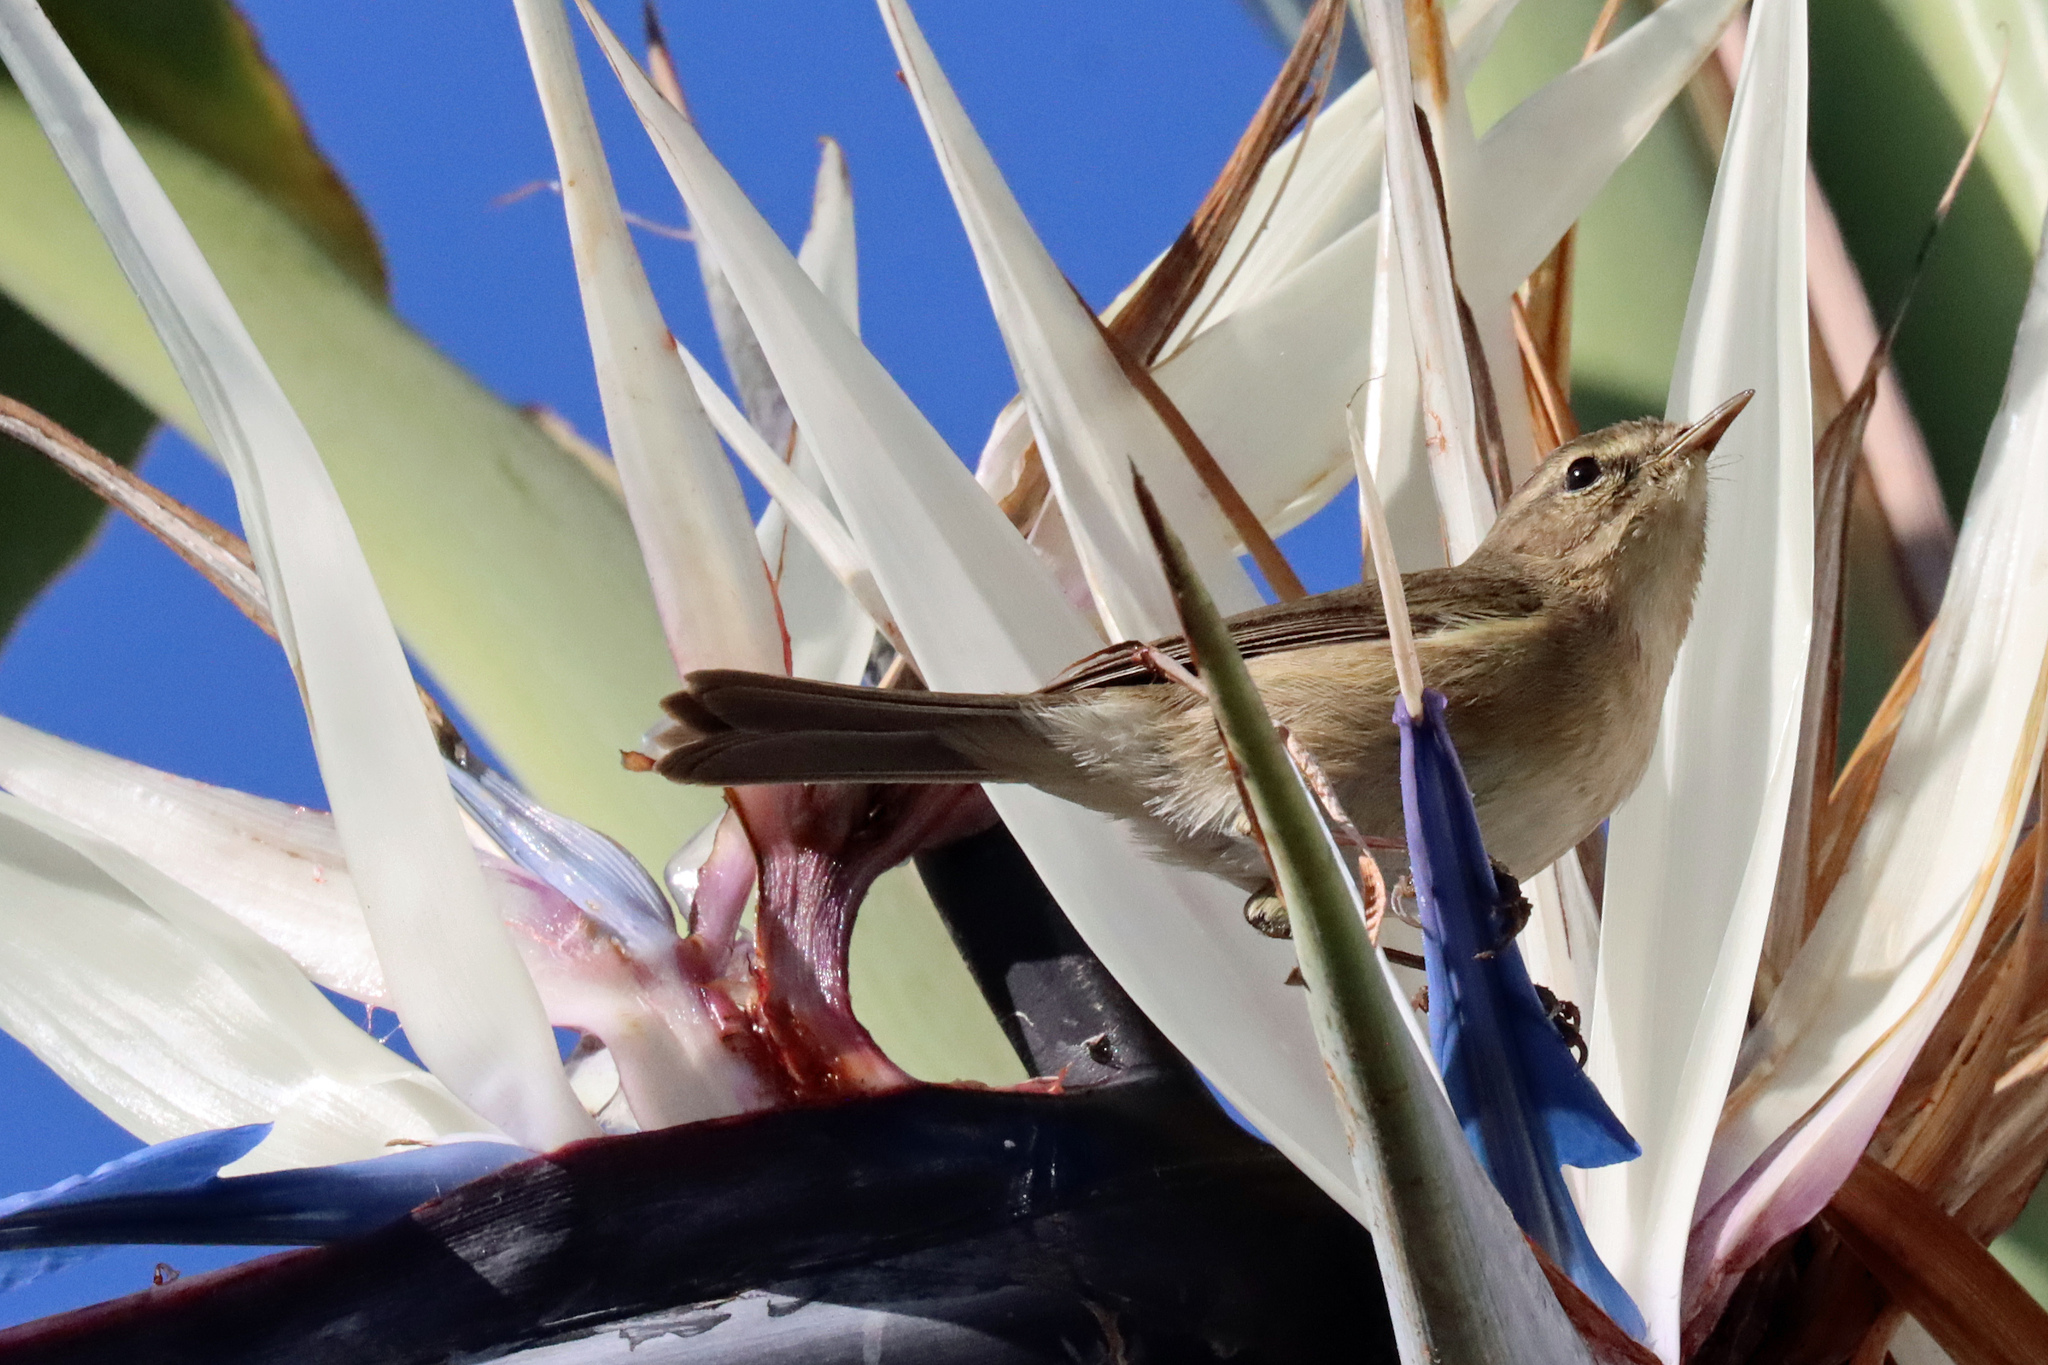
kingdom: Animalia
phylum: Chordata
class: Aves
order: Passeriformes
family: Phylloscopidae
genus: Phylloscopus
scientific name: Phylloscopus canariensis
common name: Canary islands chiffchaff
